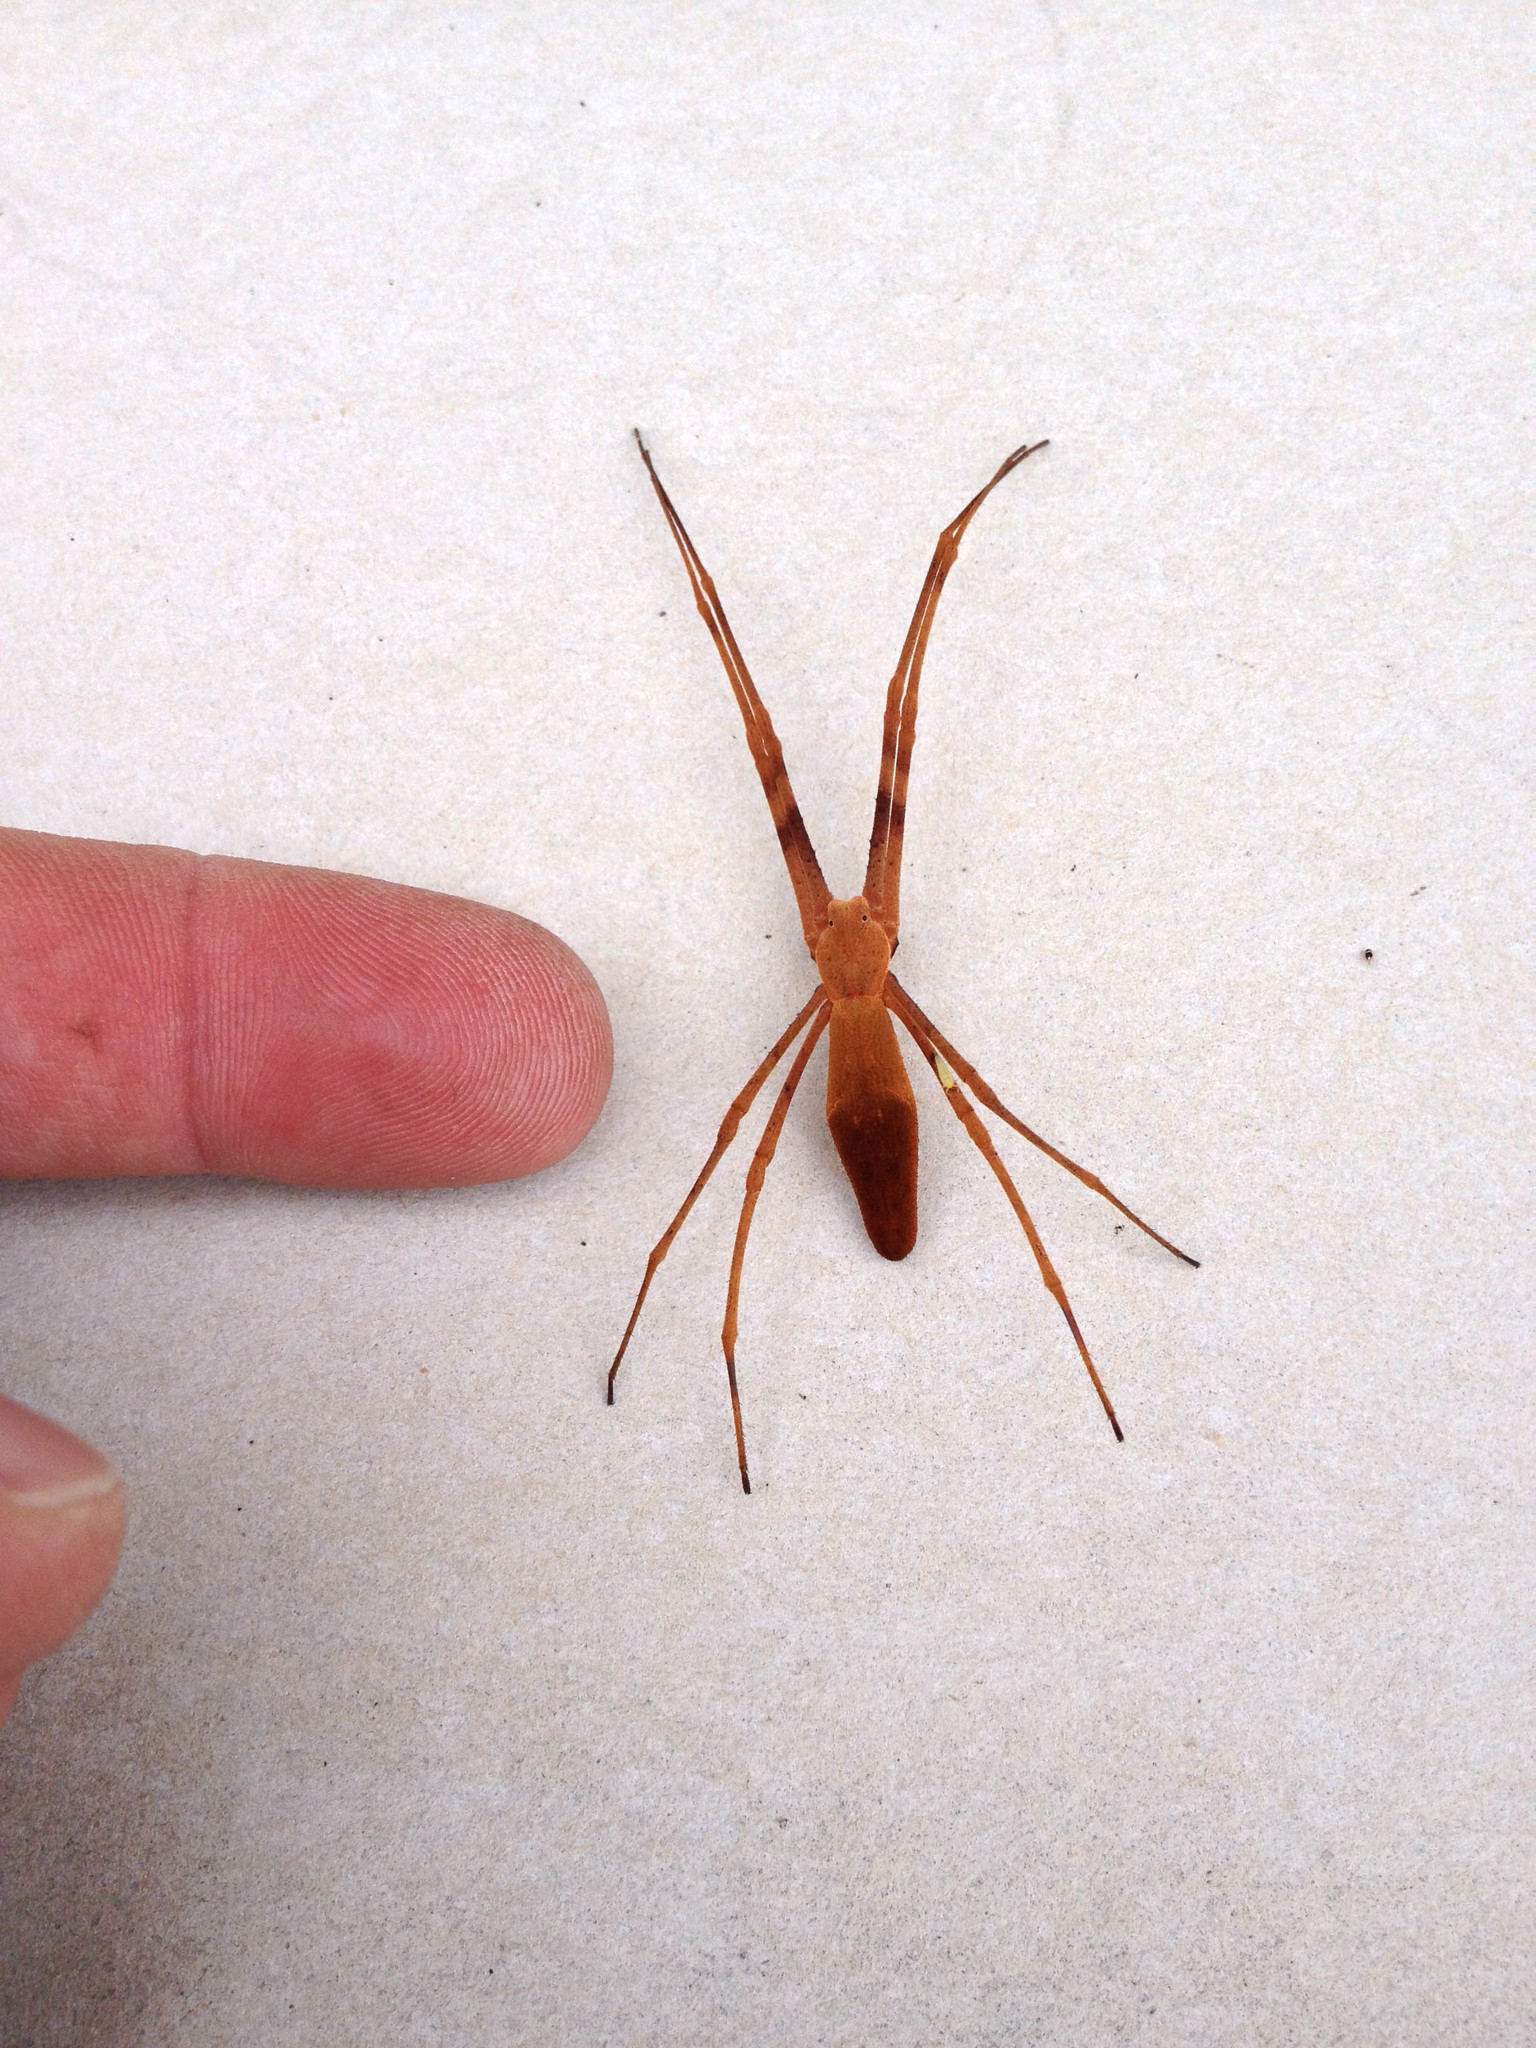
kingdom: Animalia
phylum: Arthropoda
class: Arachnida
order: Araneae
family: Deinopidae
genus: Deinopis
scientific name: Deinopis subrufa
